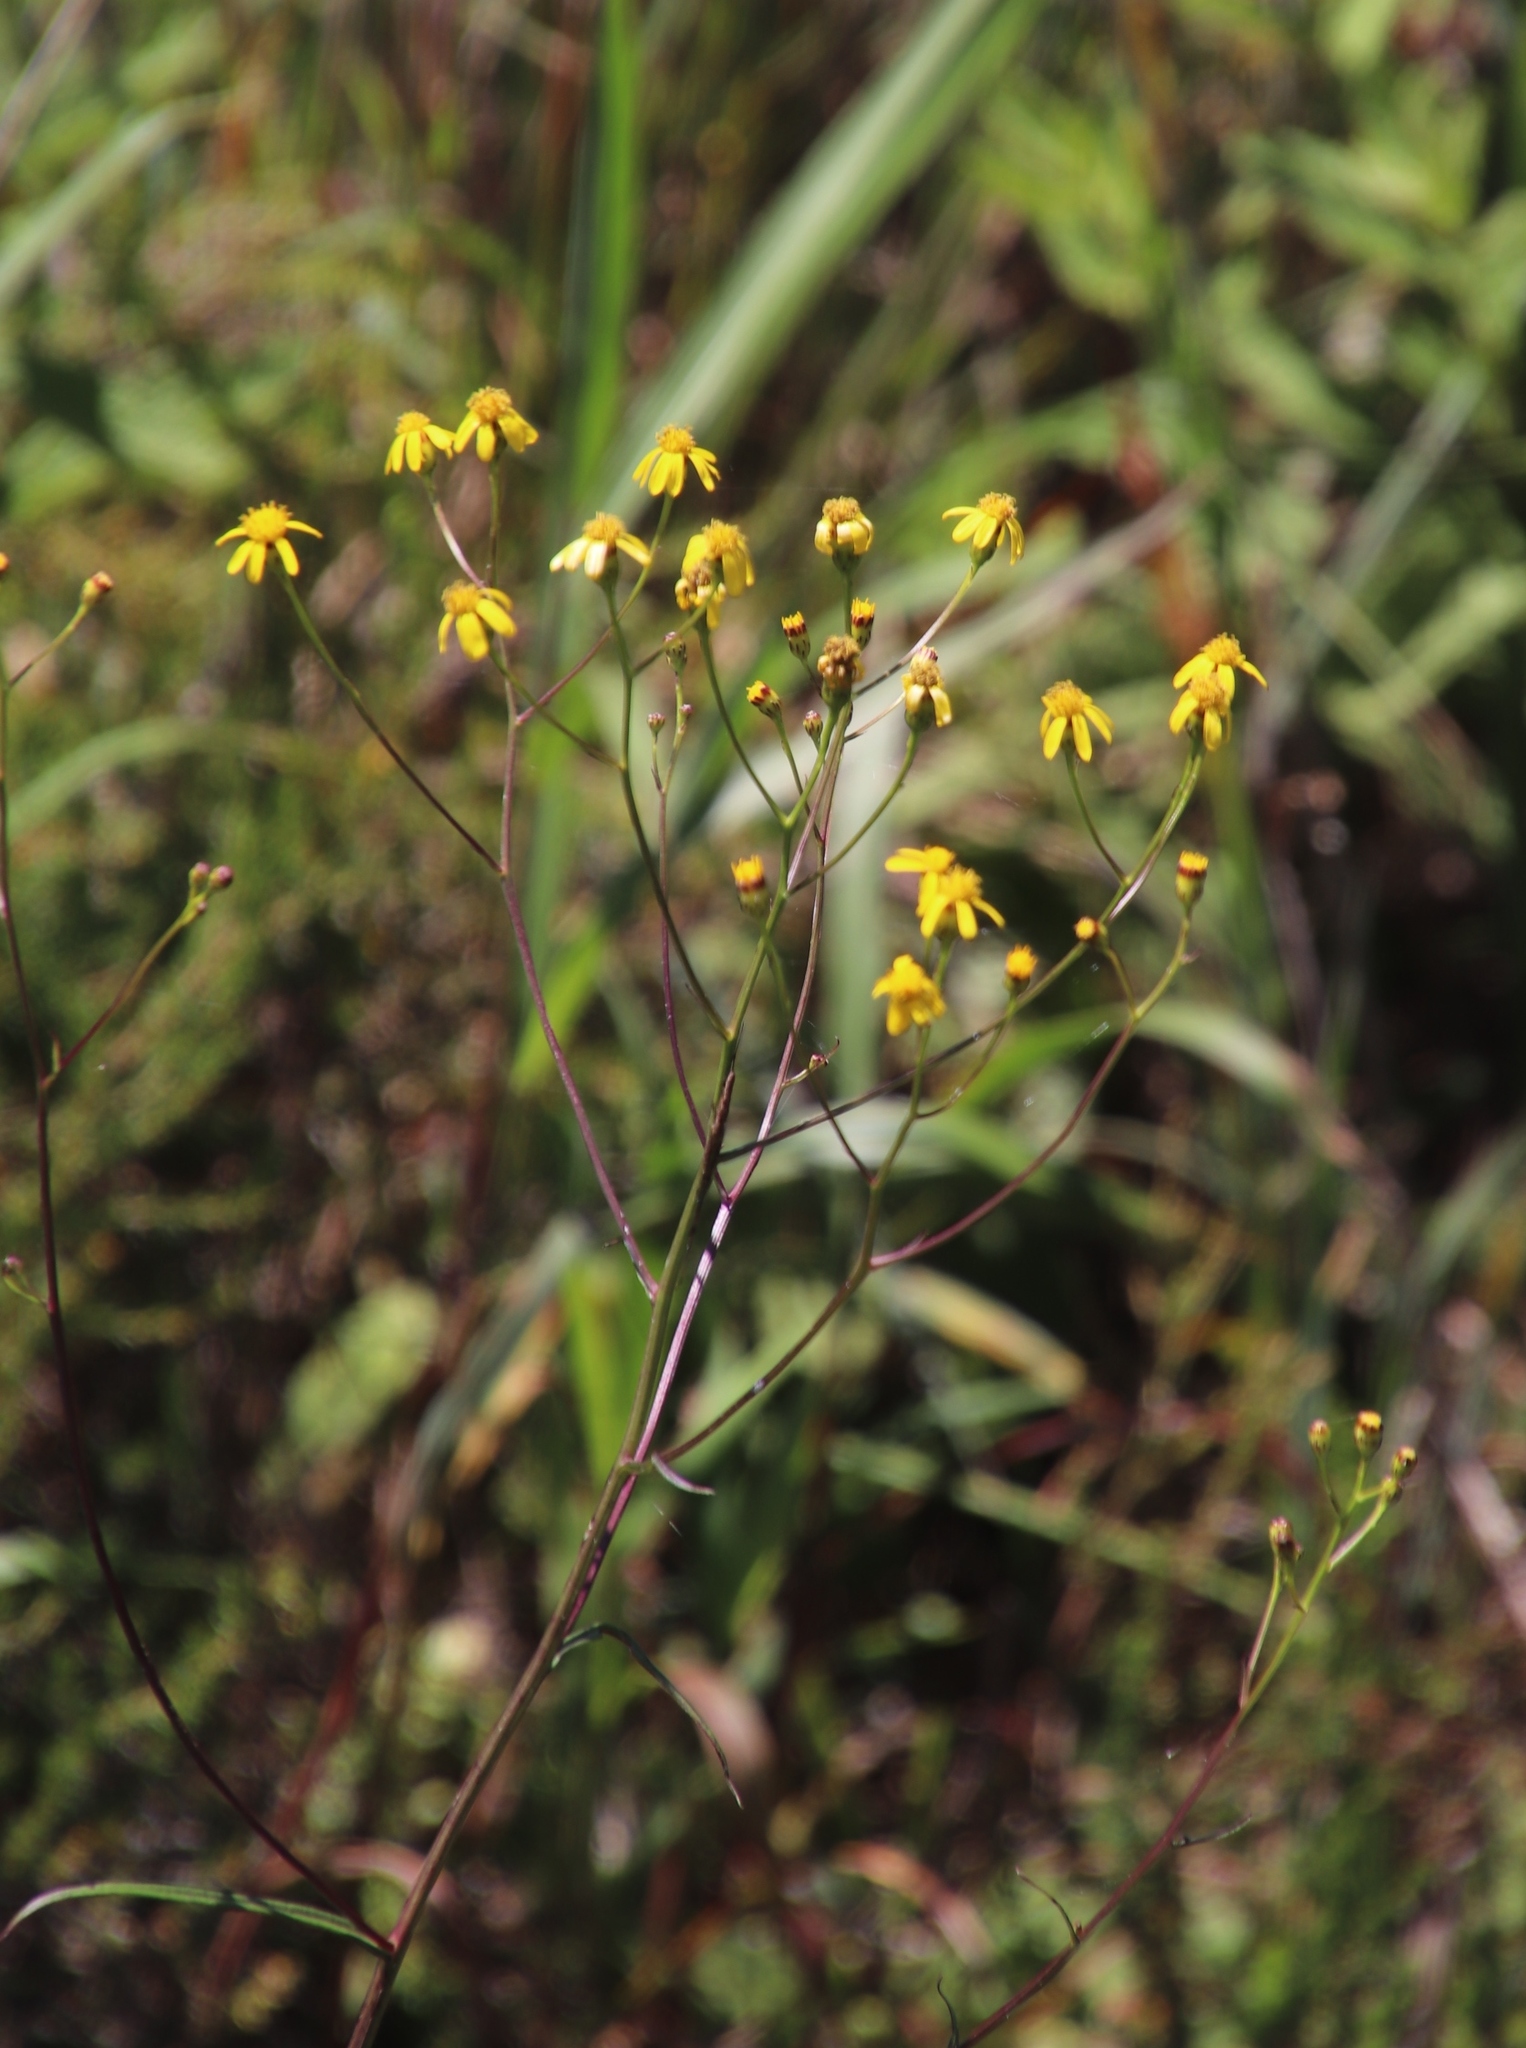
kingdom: Plantae
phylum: Tracheophyta
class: Magnoliopsida
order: Asterales
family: Asteraceae
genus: Senecio
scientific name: Senecio inornatus
